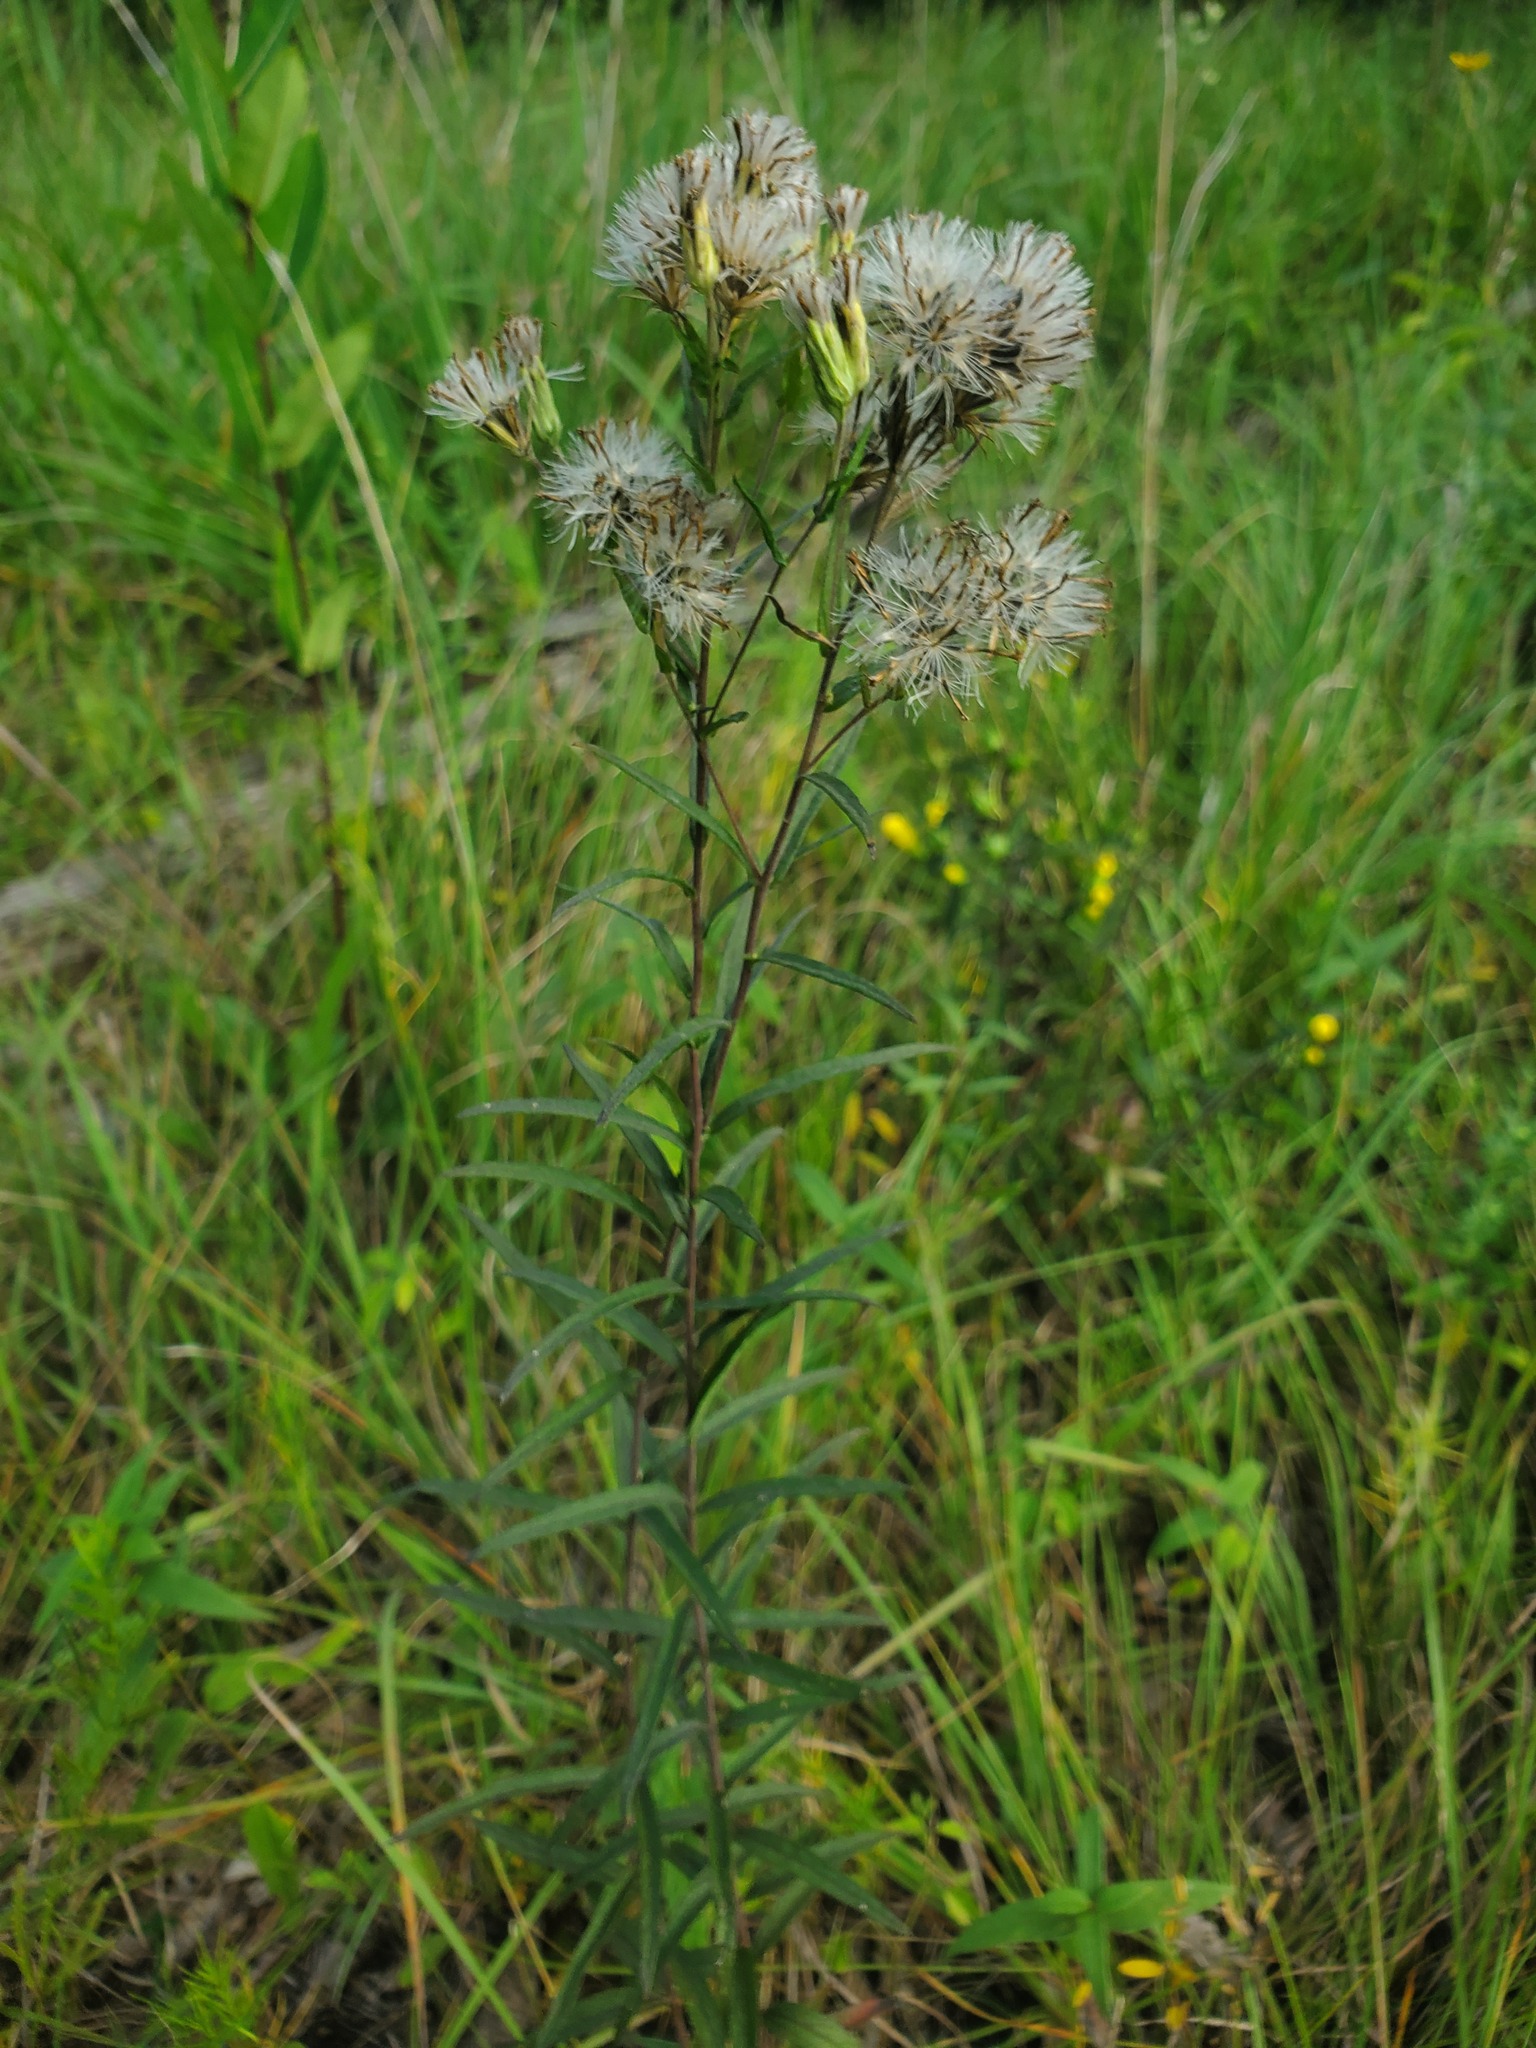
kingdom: Plantae
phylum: Tracheophyta
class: Magnoliopsida
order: Asterales
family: Asteraceae
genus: Brickellia
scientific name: Brickellia eupatorioides
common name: False boneset
